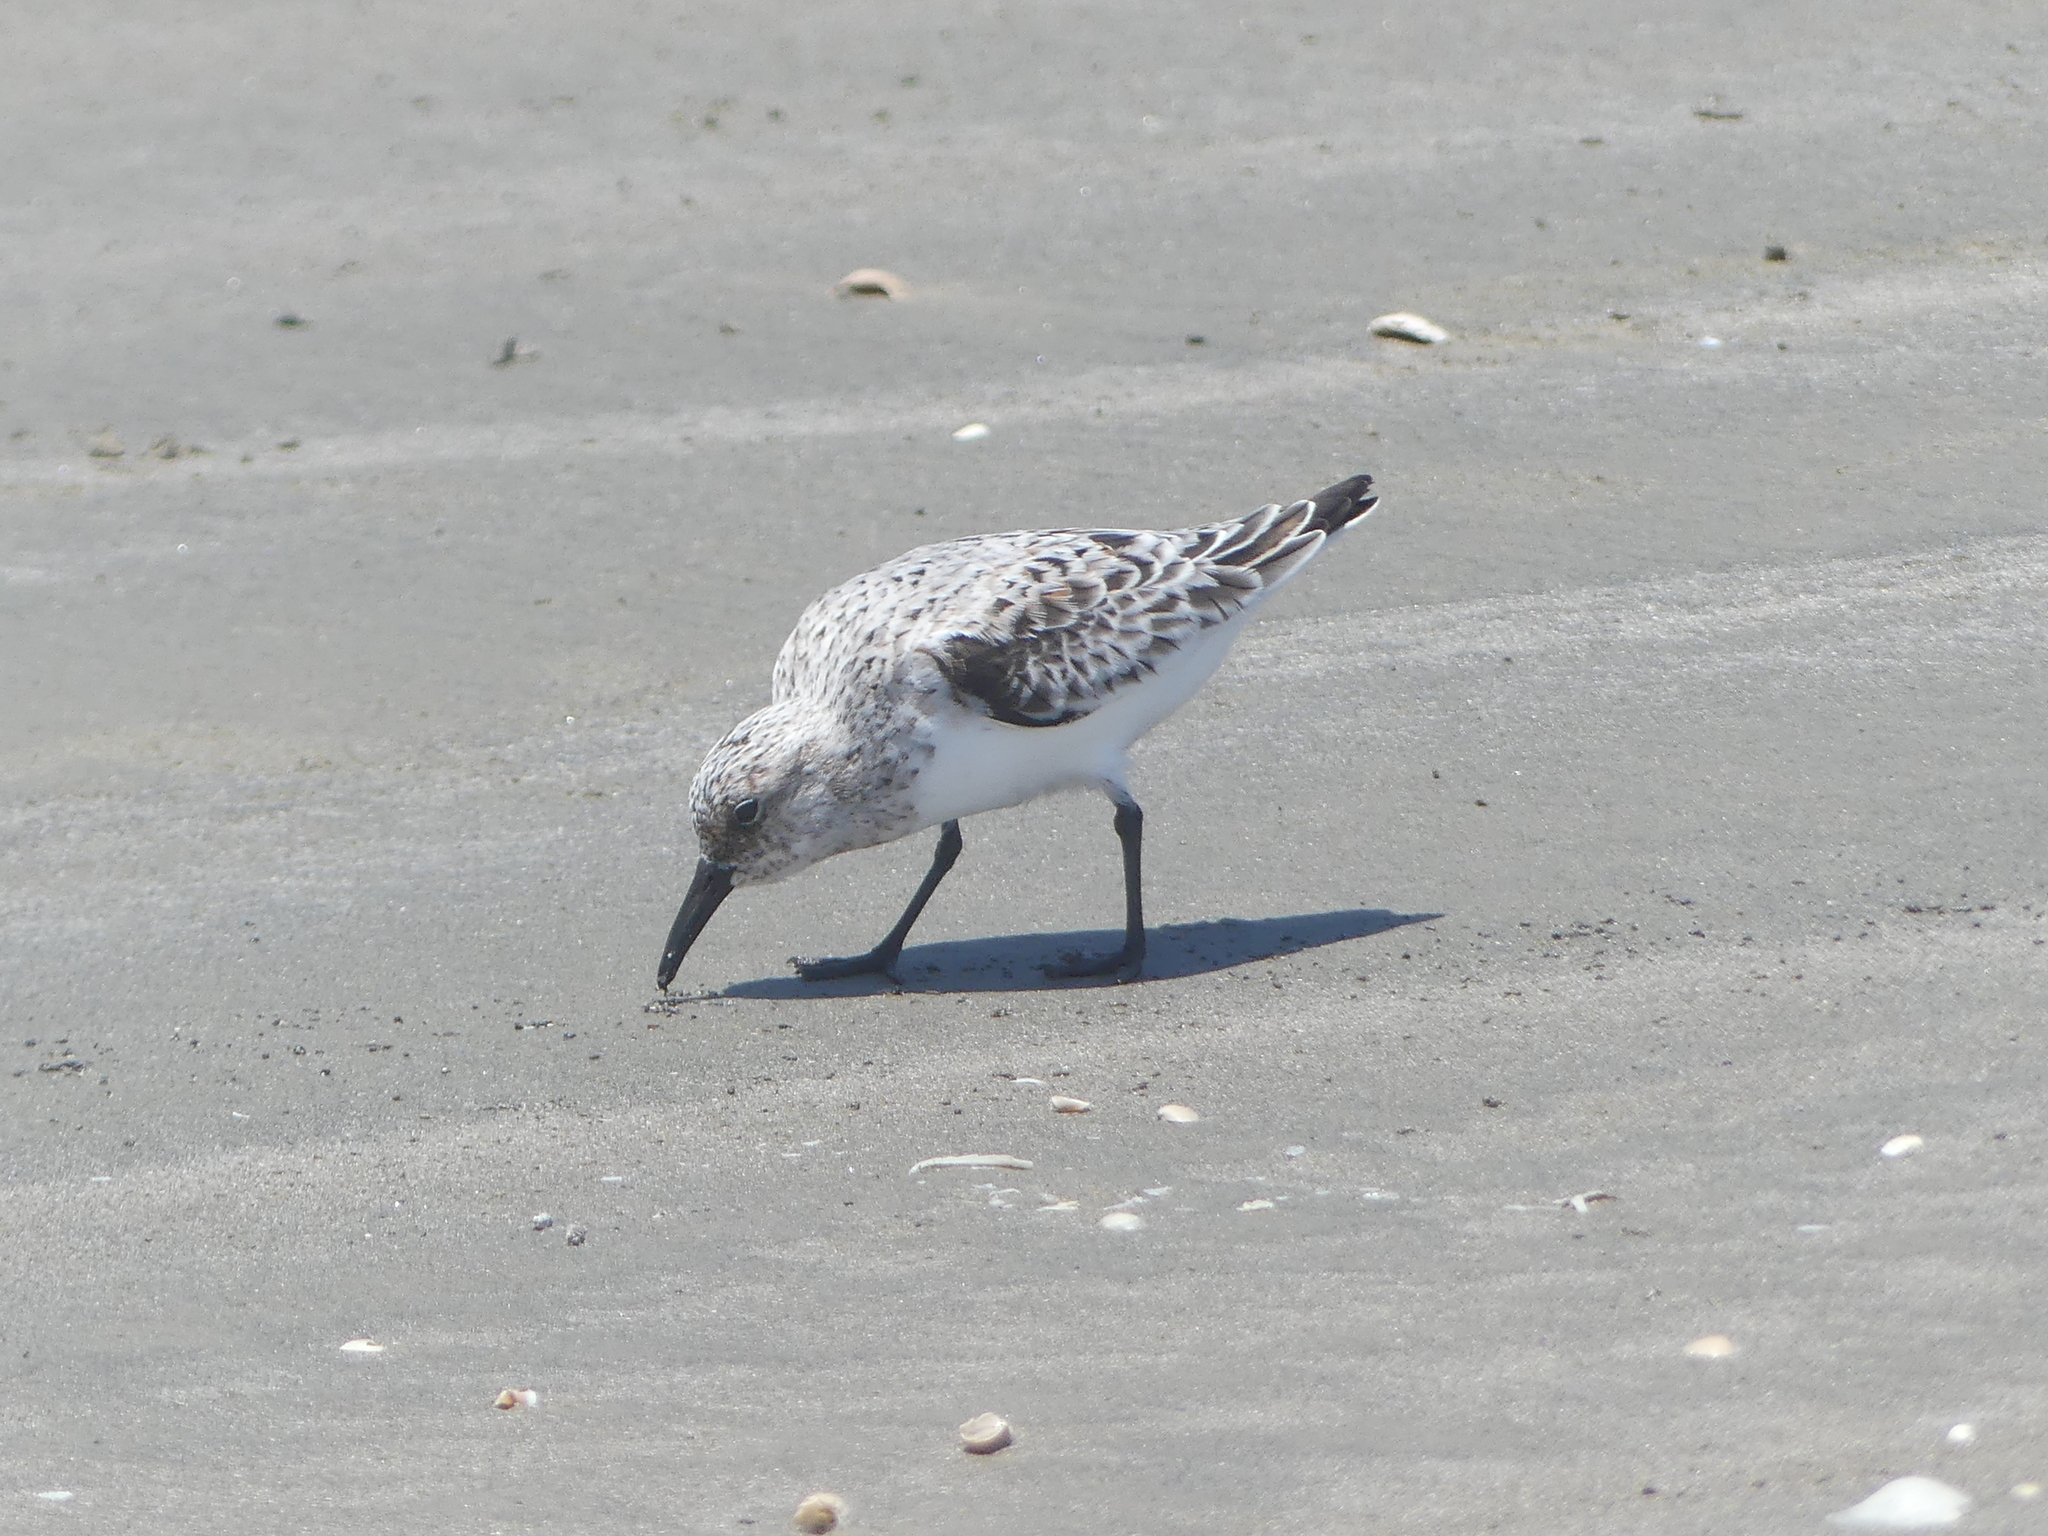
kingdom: Animalia
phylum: Chordata
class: Aves
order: Charadriiformes
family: Scolopacidae
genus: Calidris
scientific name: Calidris alba
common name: Sanderling
